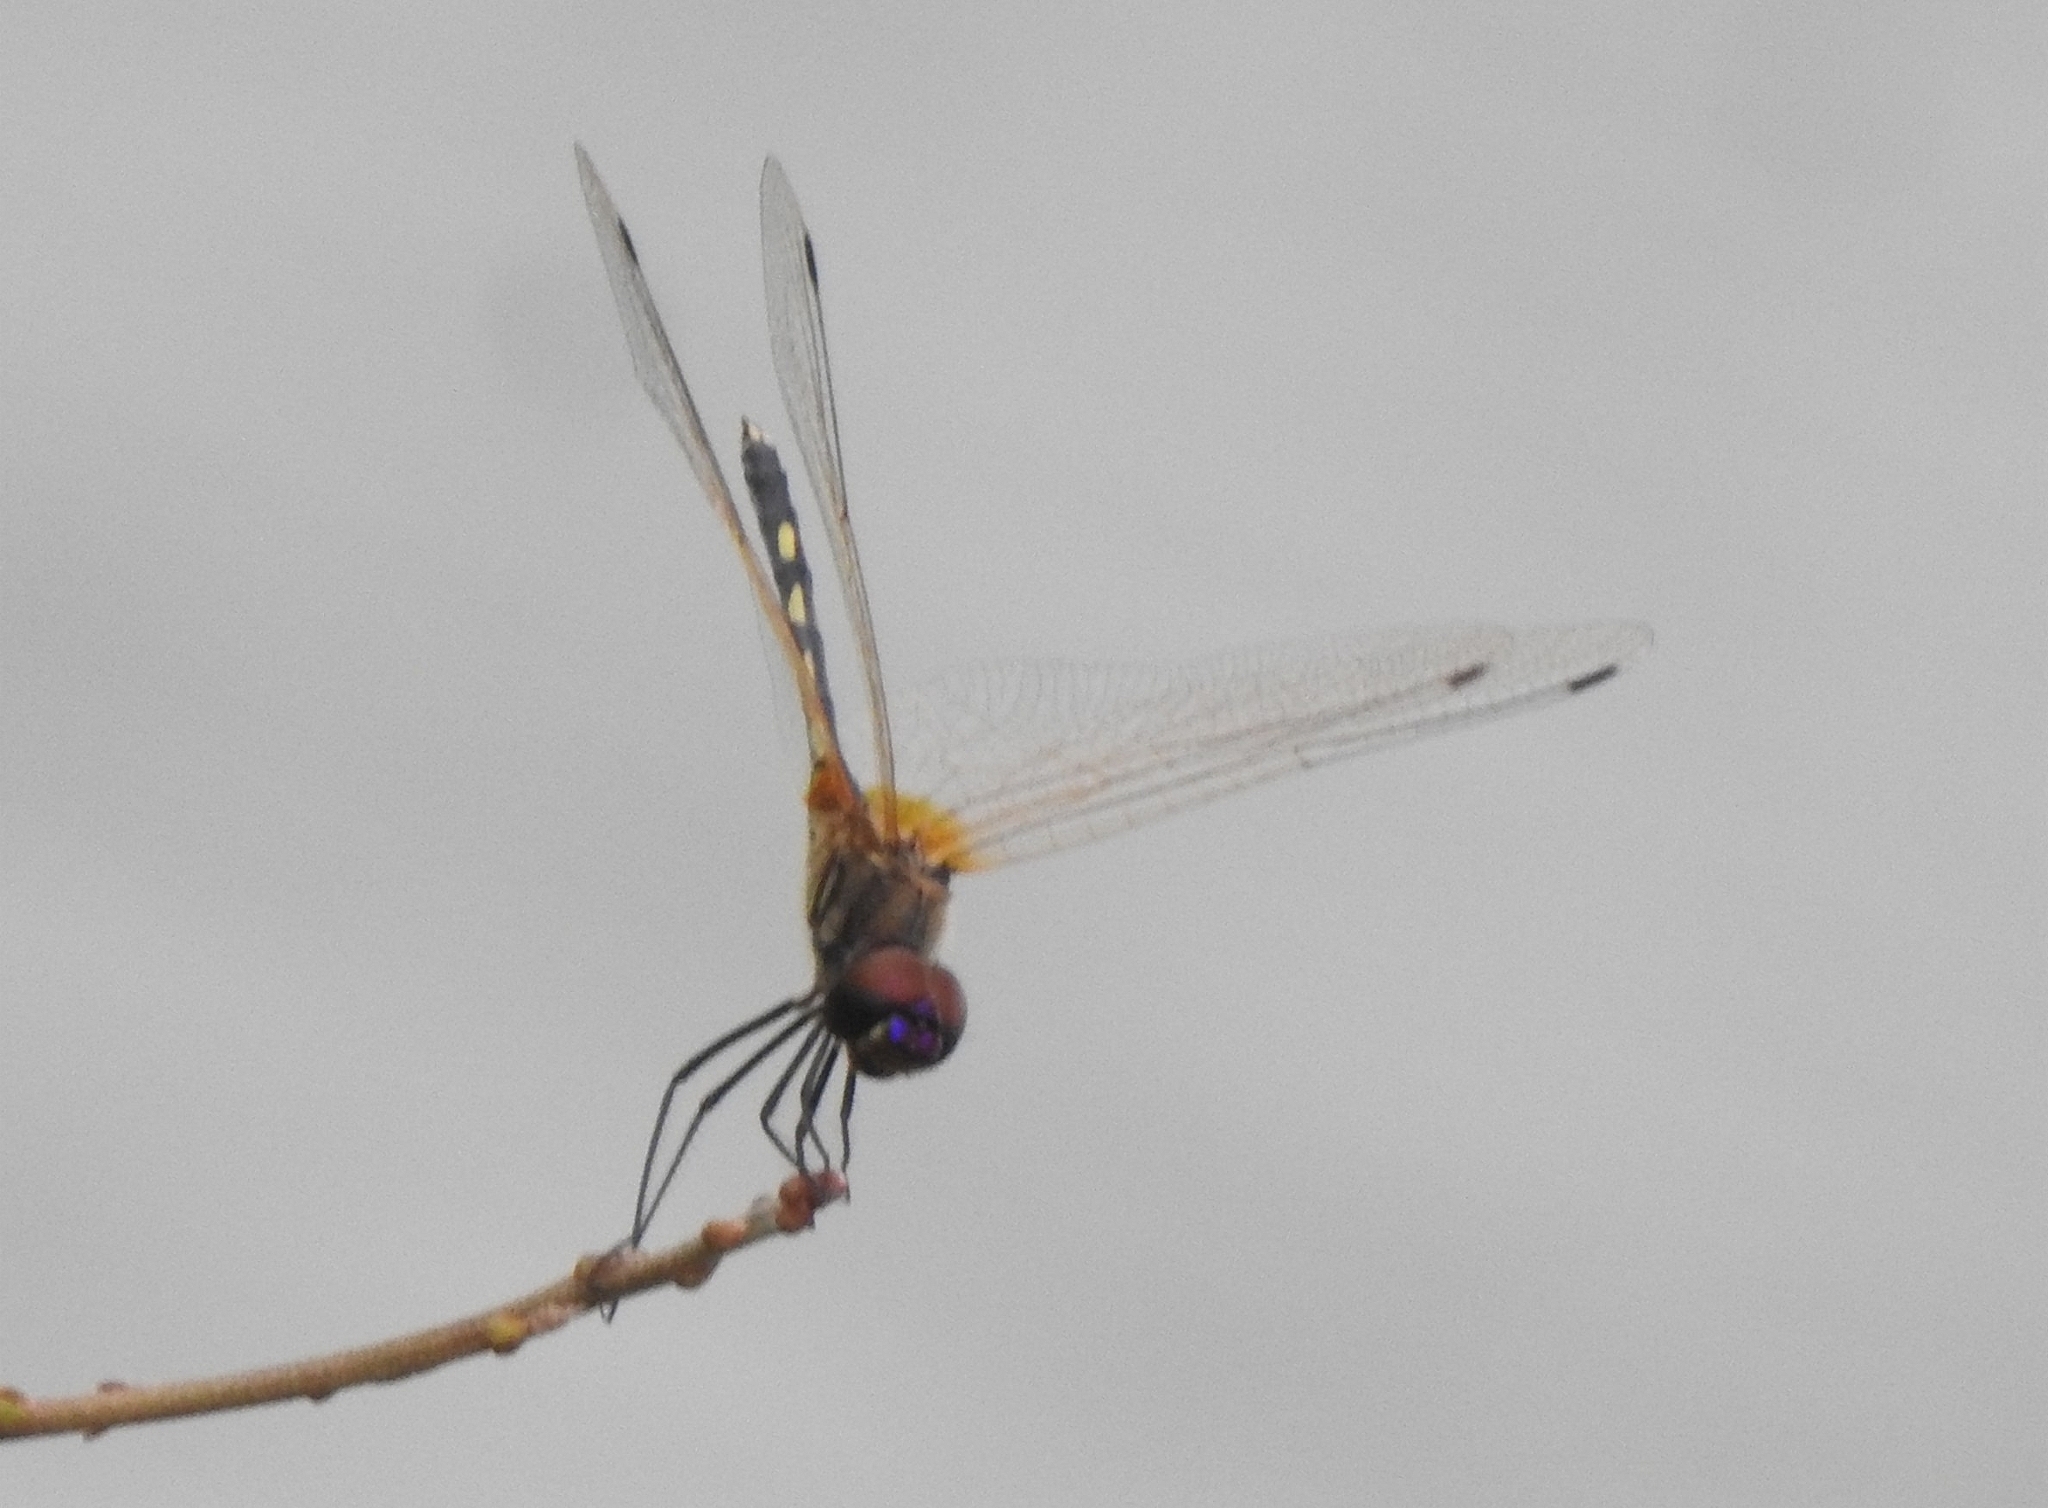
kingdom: Animalia
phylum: Arthropoda
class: Insecta
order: Odonata
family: Libellulidae
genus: Trithemis
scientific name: Trithemis pallidinervis
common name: Dancing dropwing
